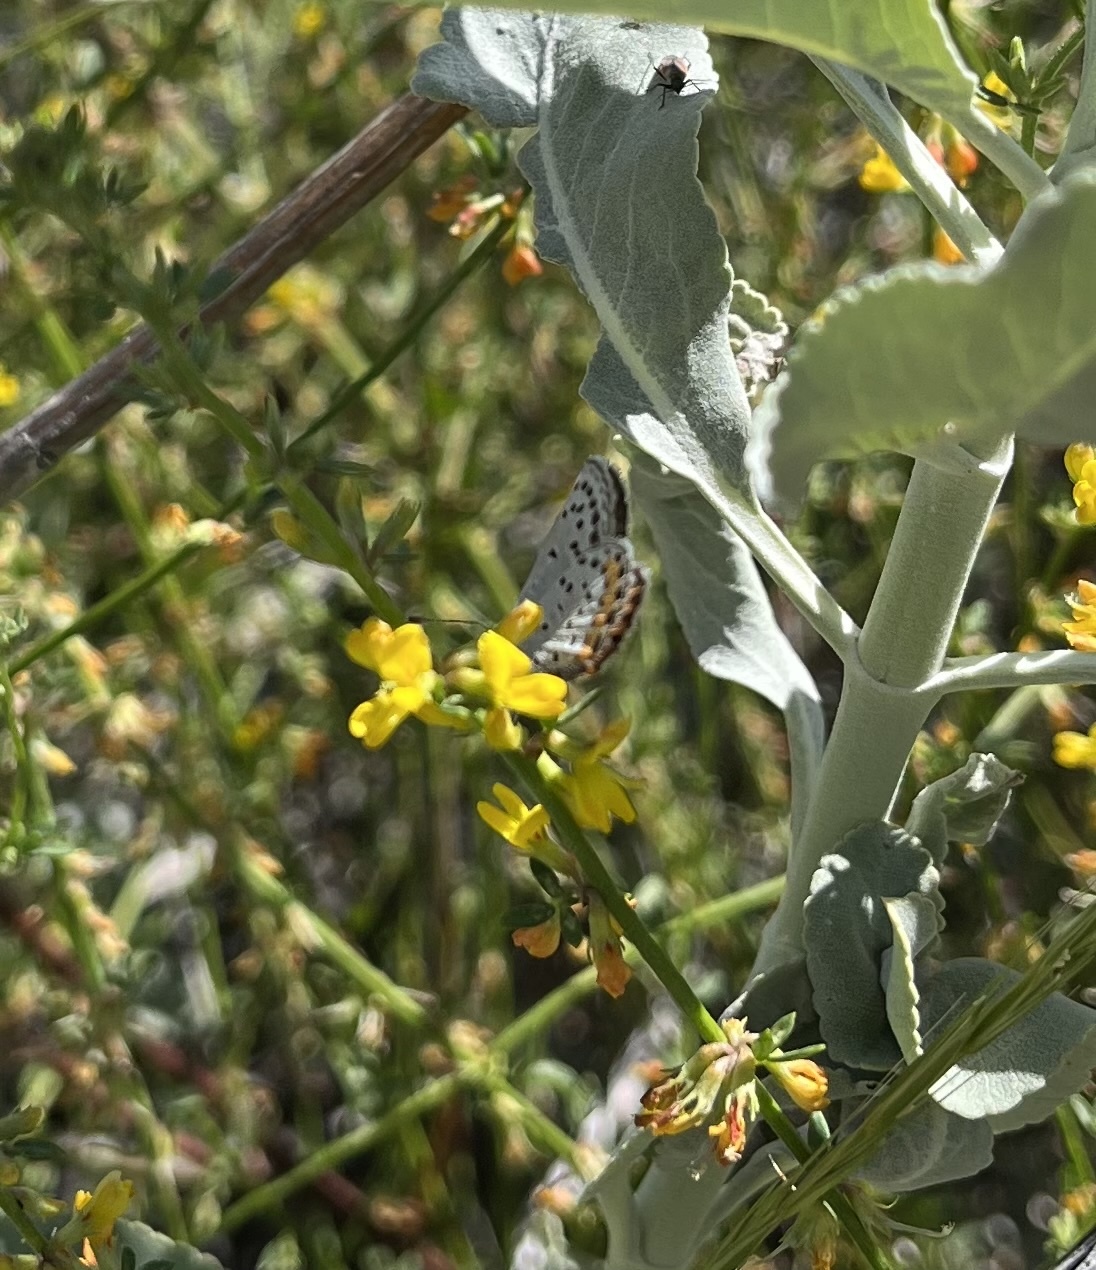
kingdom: Animalia
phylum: Arthropoda
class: Insecta
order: Lepidoptera
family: Lycaenidae
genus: Icaricia
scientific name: Icaricia acmon
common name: Acmon blue
